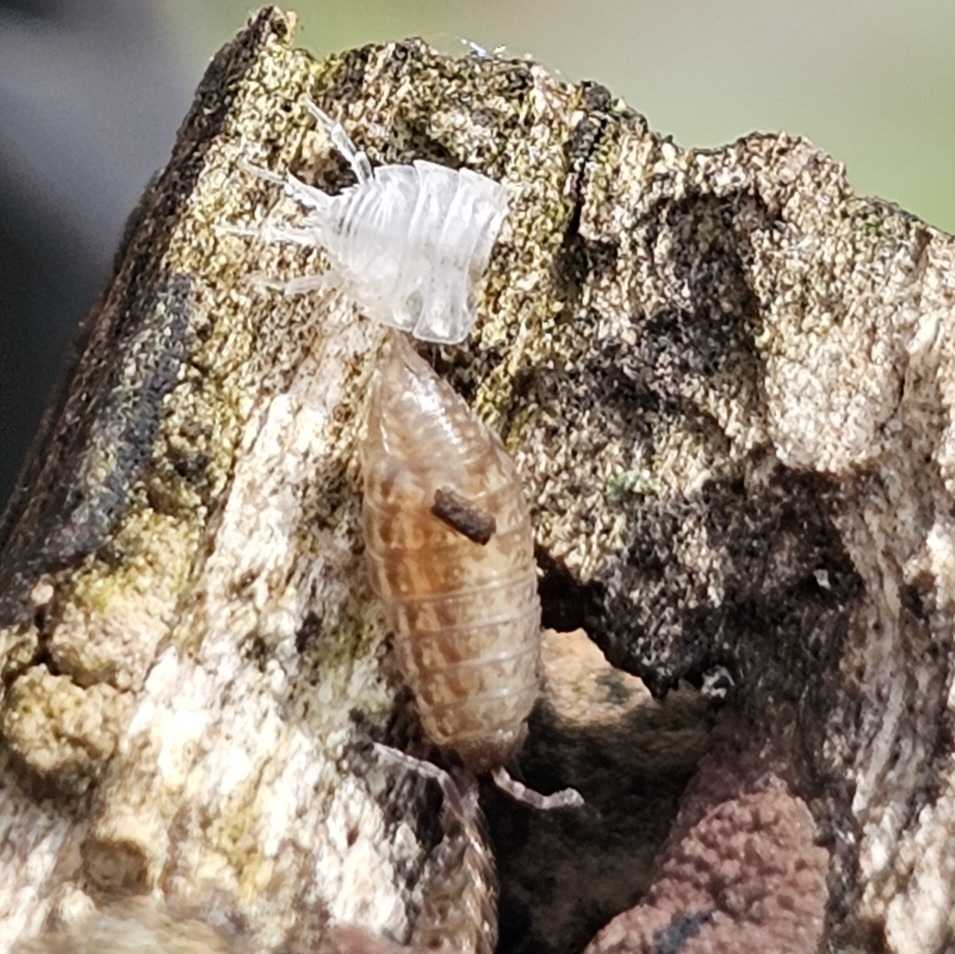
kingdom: Animalia
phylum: Arthropoda
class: Malacostraca
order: Isopoda
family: Philosciidae
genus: Philoscia
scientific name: Philoscia muscorum
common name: Common striped woodlouse
